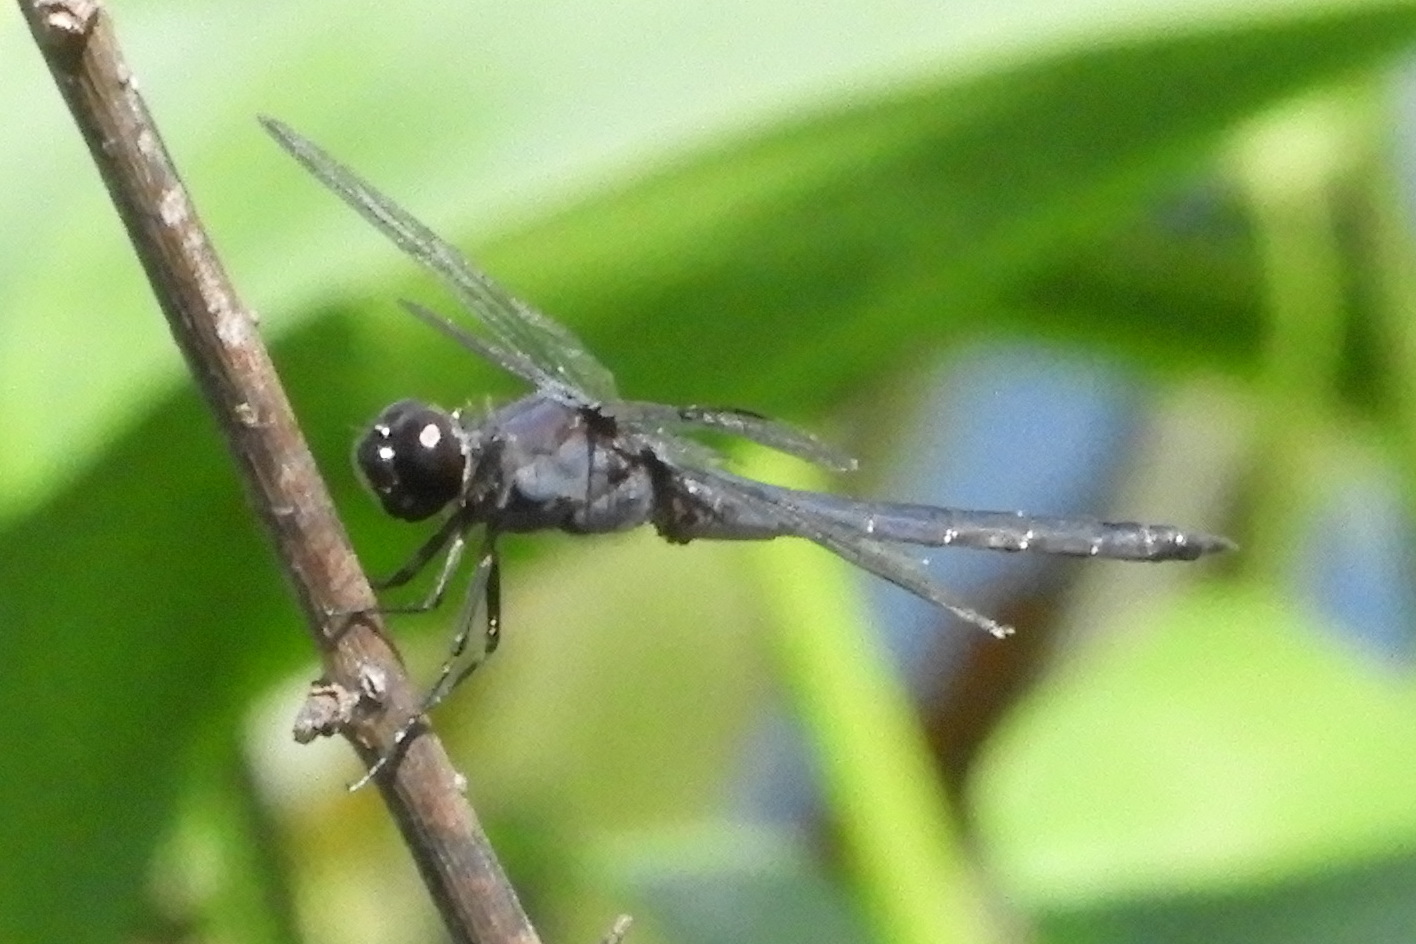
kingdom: Animalia
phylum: Arthropoda
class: Insecta
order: Odonata
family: Libellulidae
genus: Libellula
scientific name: Libellula incesta
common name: Slaty skimmer
